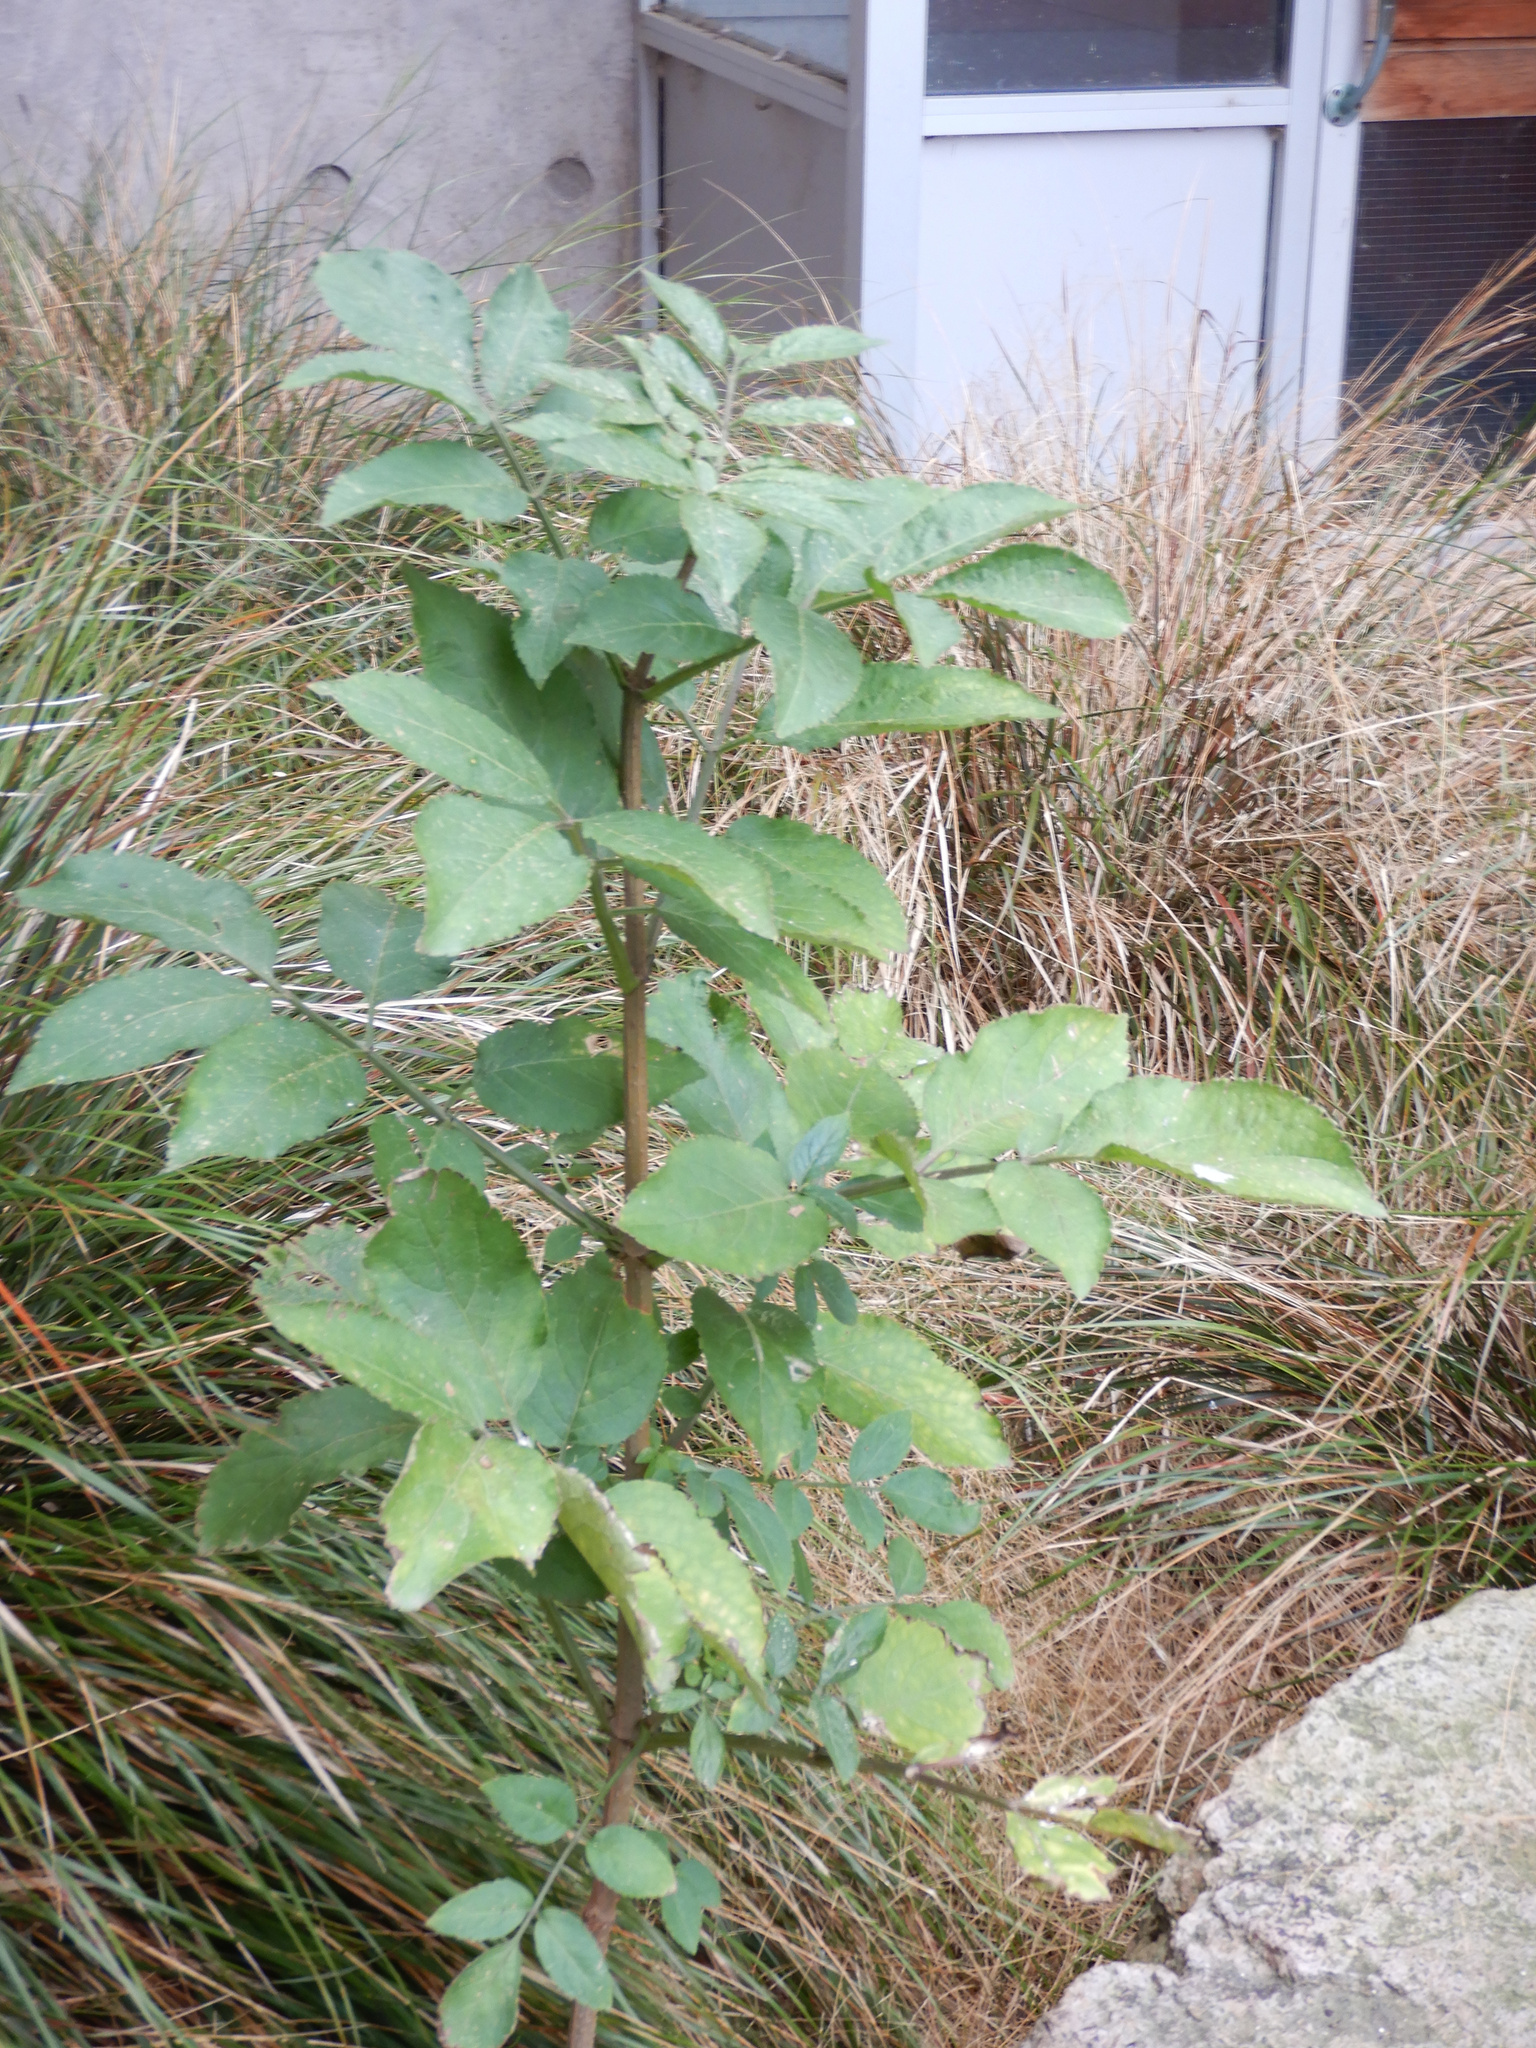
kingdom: Plantae
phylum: Tracheophyta
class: Magnoliopsida
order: Dipsacales
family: Viburnaceae
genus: Sambucus
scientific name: Sambucus nigra
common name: Elder
